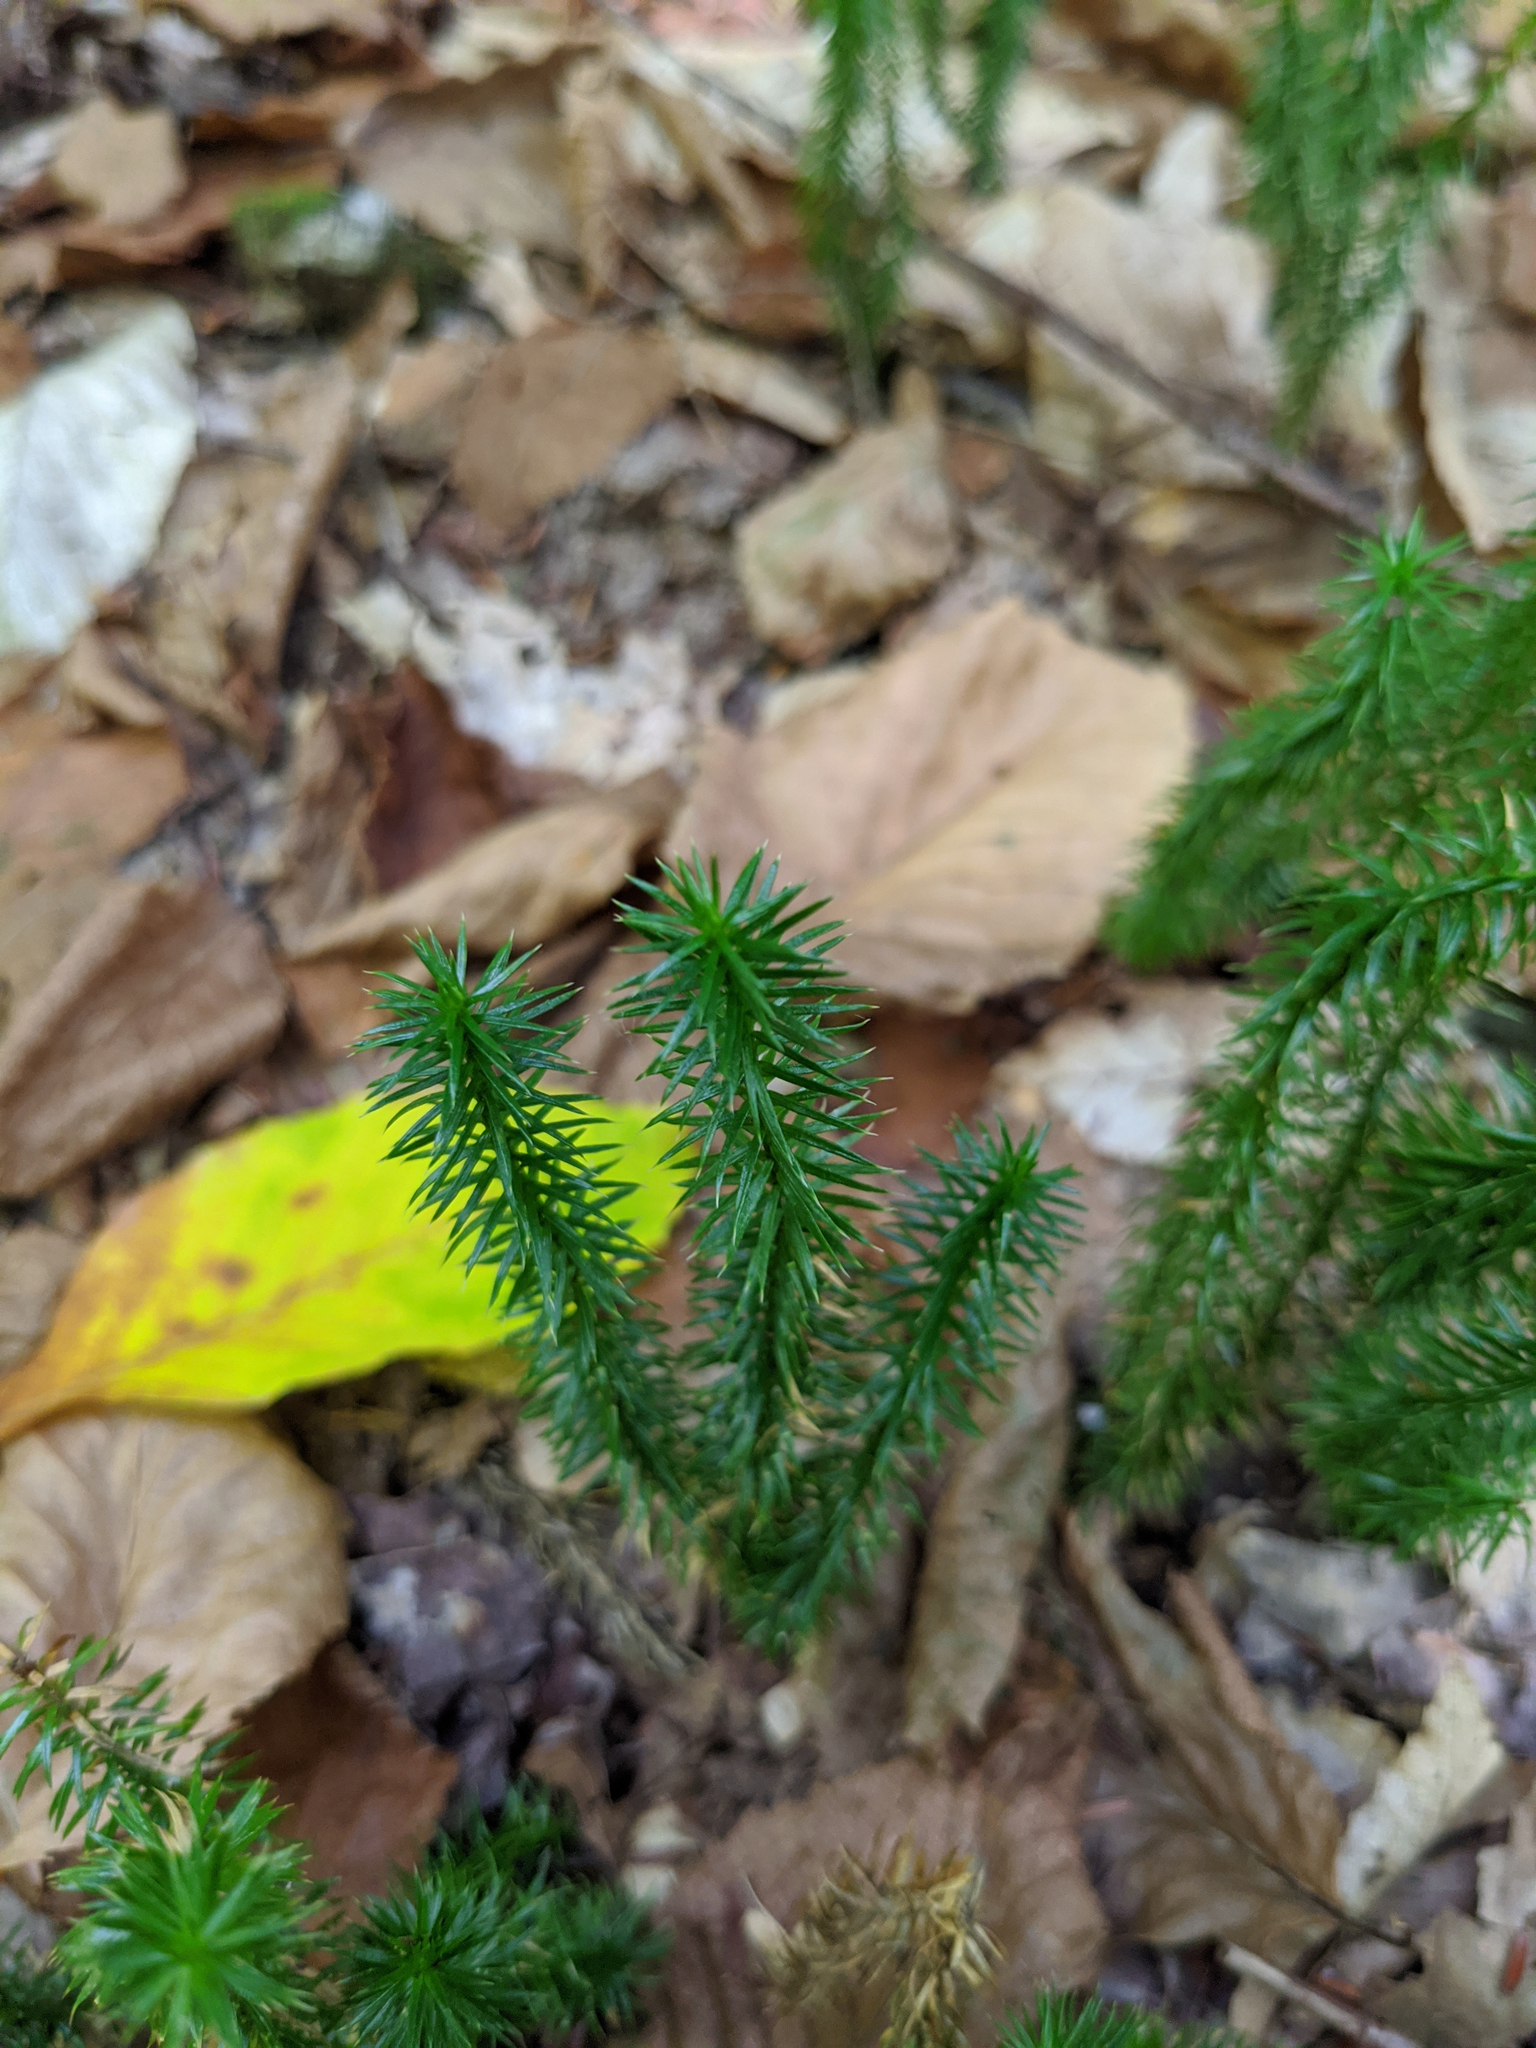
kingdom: Plantae
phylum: Tracheophyta
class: Lycopodiopsida
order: Lycopodiales
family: Lycopodiaceae
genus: Spinulum
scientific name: Spinulum annotinum
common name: Interrupted club-moss
